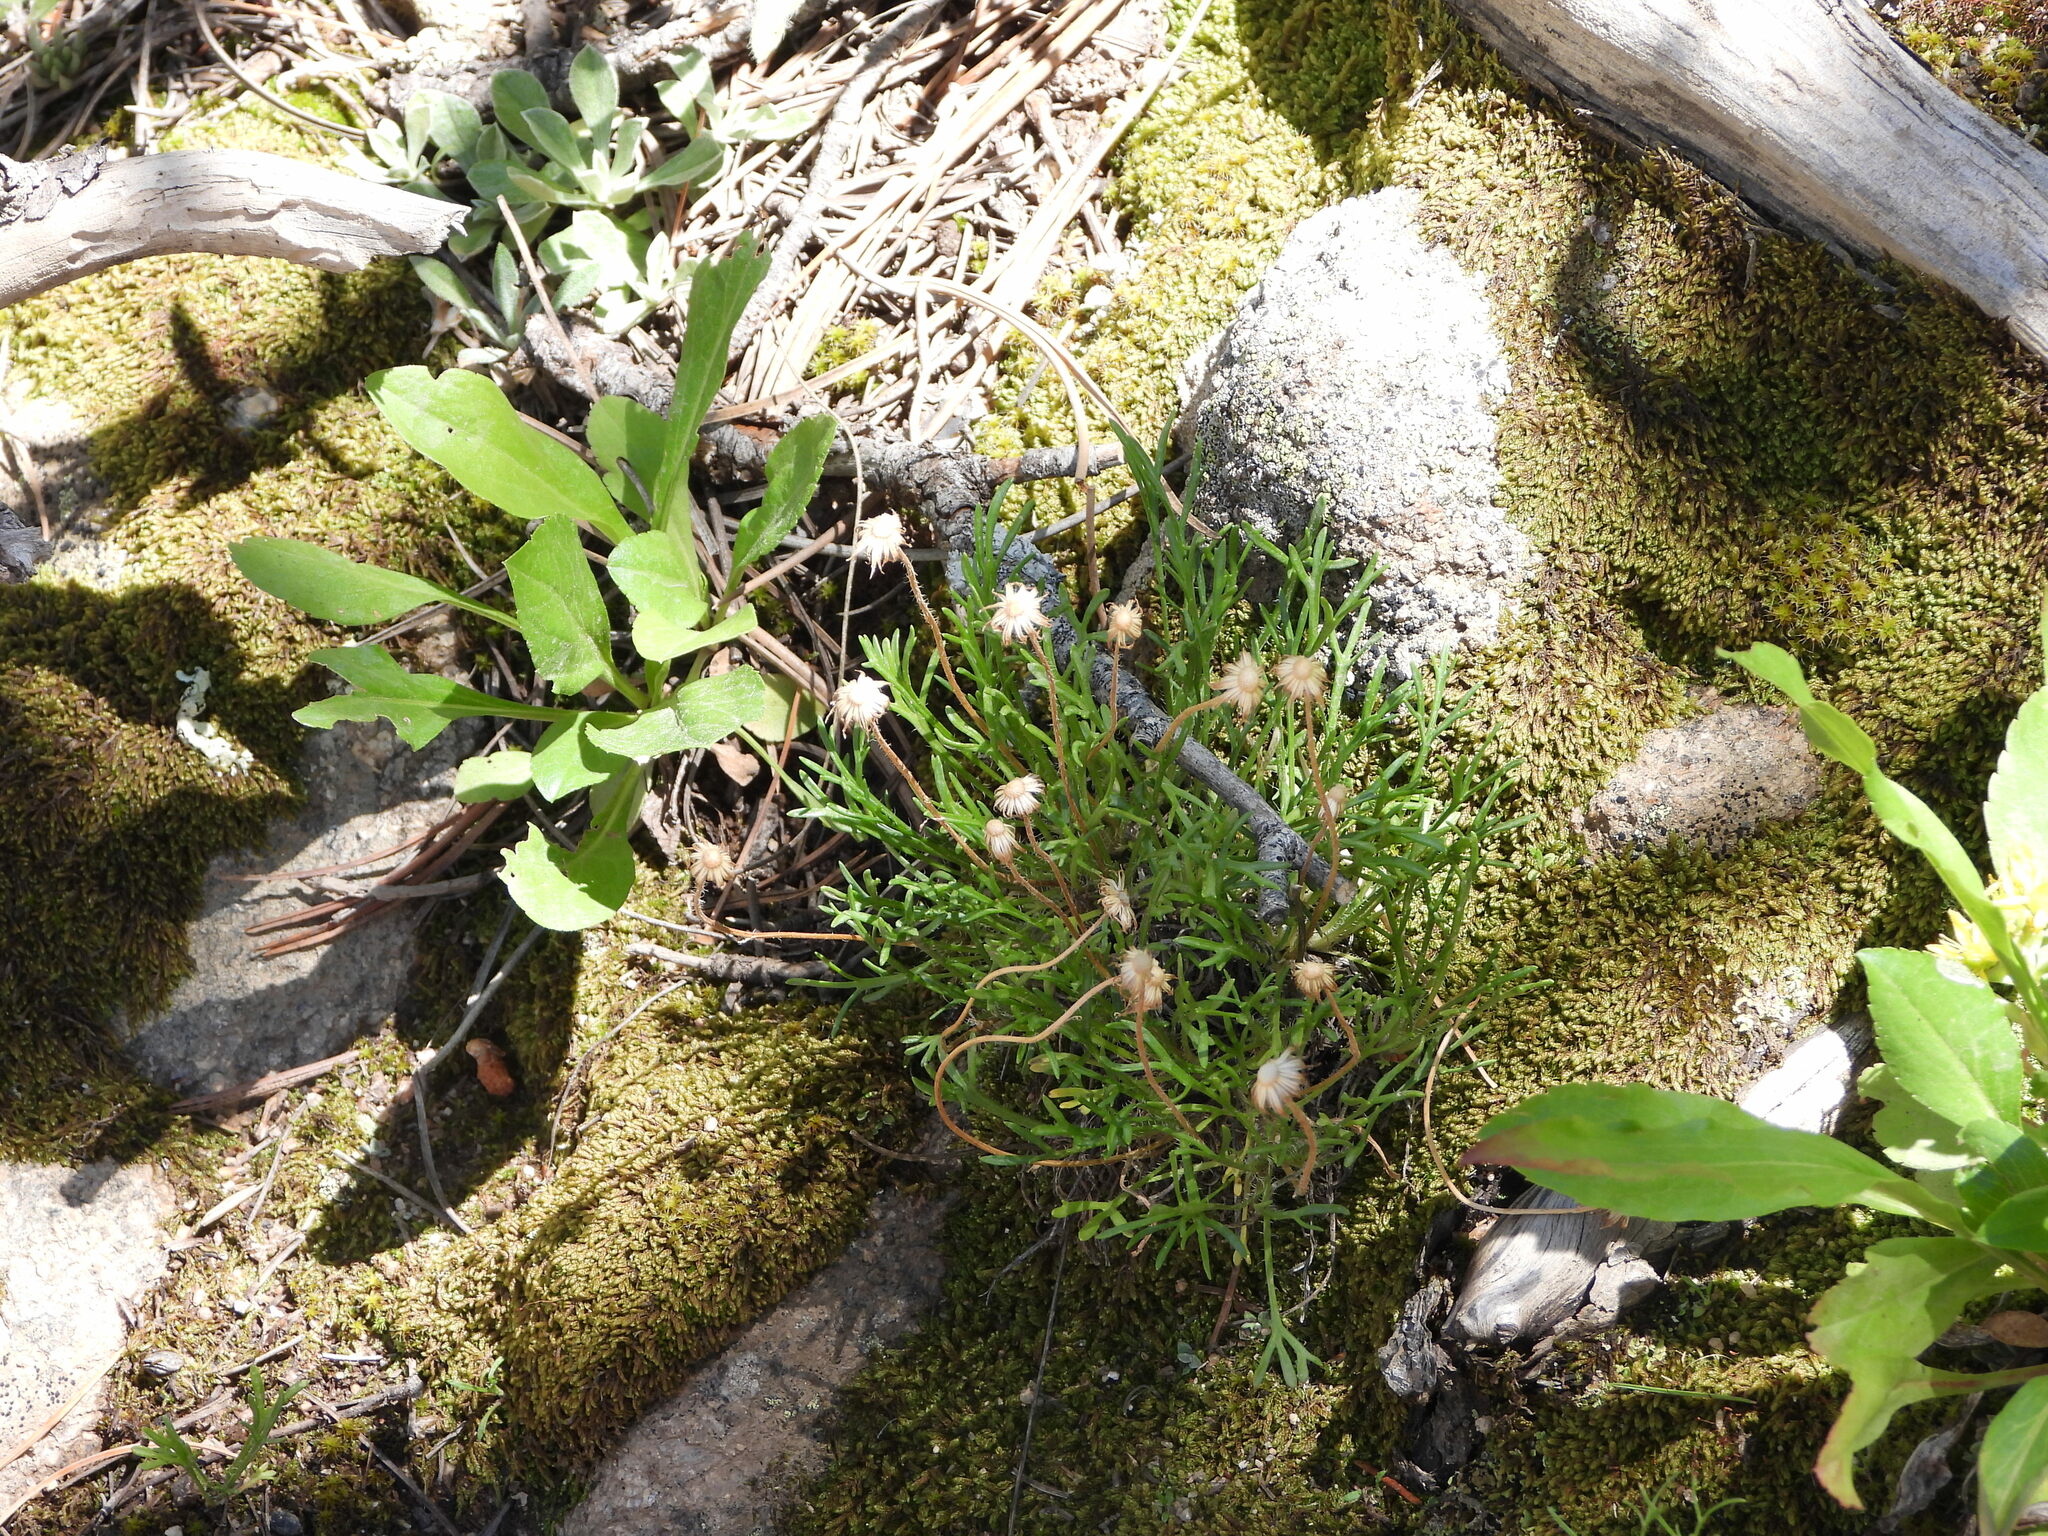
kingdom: Plantae
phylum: Tracheophyta
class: Magnoliopsida
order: Asterales
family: Asteraceae
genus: Erigeron
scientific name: Erigeron compositus
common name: Dwarf mountain fleabane
